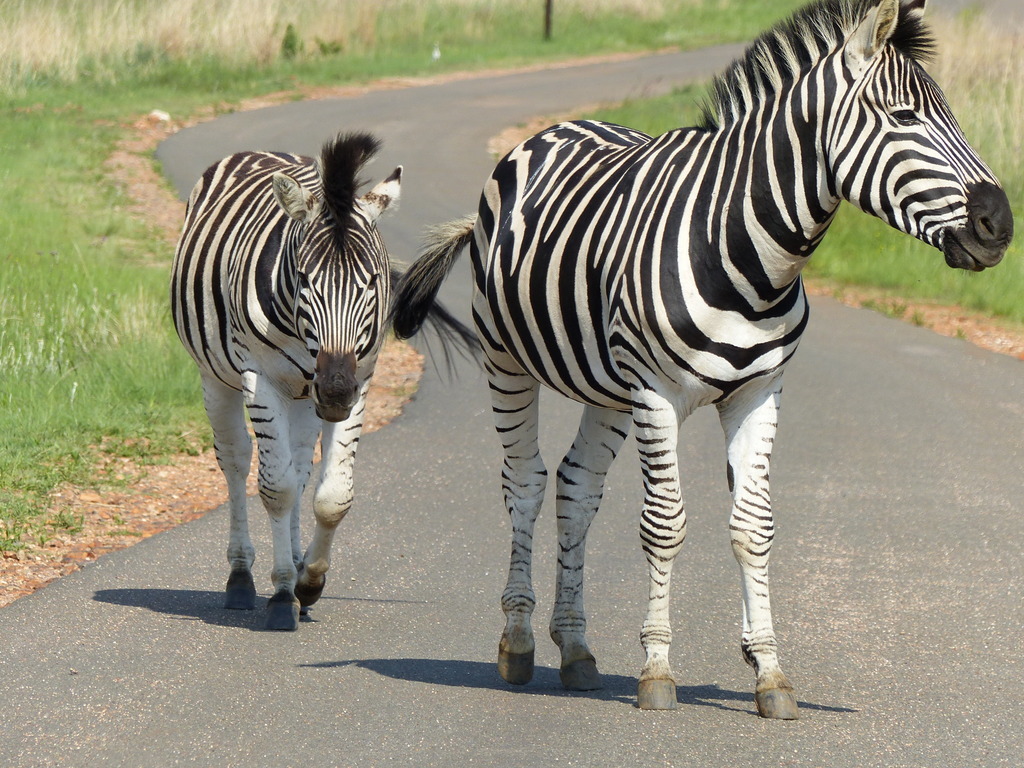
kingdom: Animalia
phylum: Chordata
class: Mammalia
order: Perissodactyla
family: Equidae
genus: Equus
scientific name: Equus quagga
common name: Plains zebra
